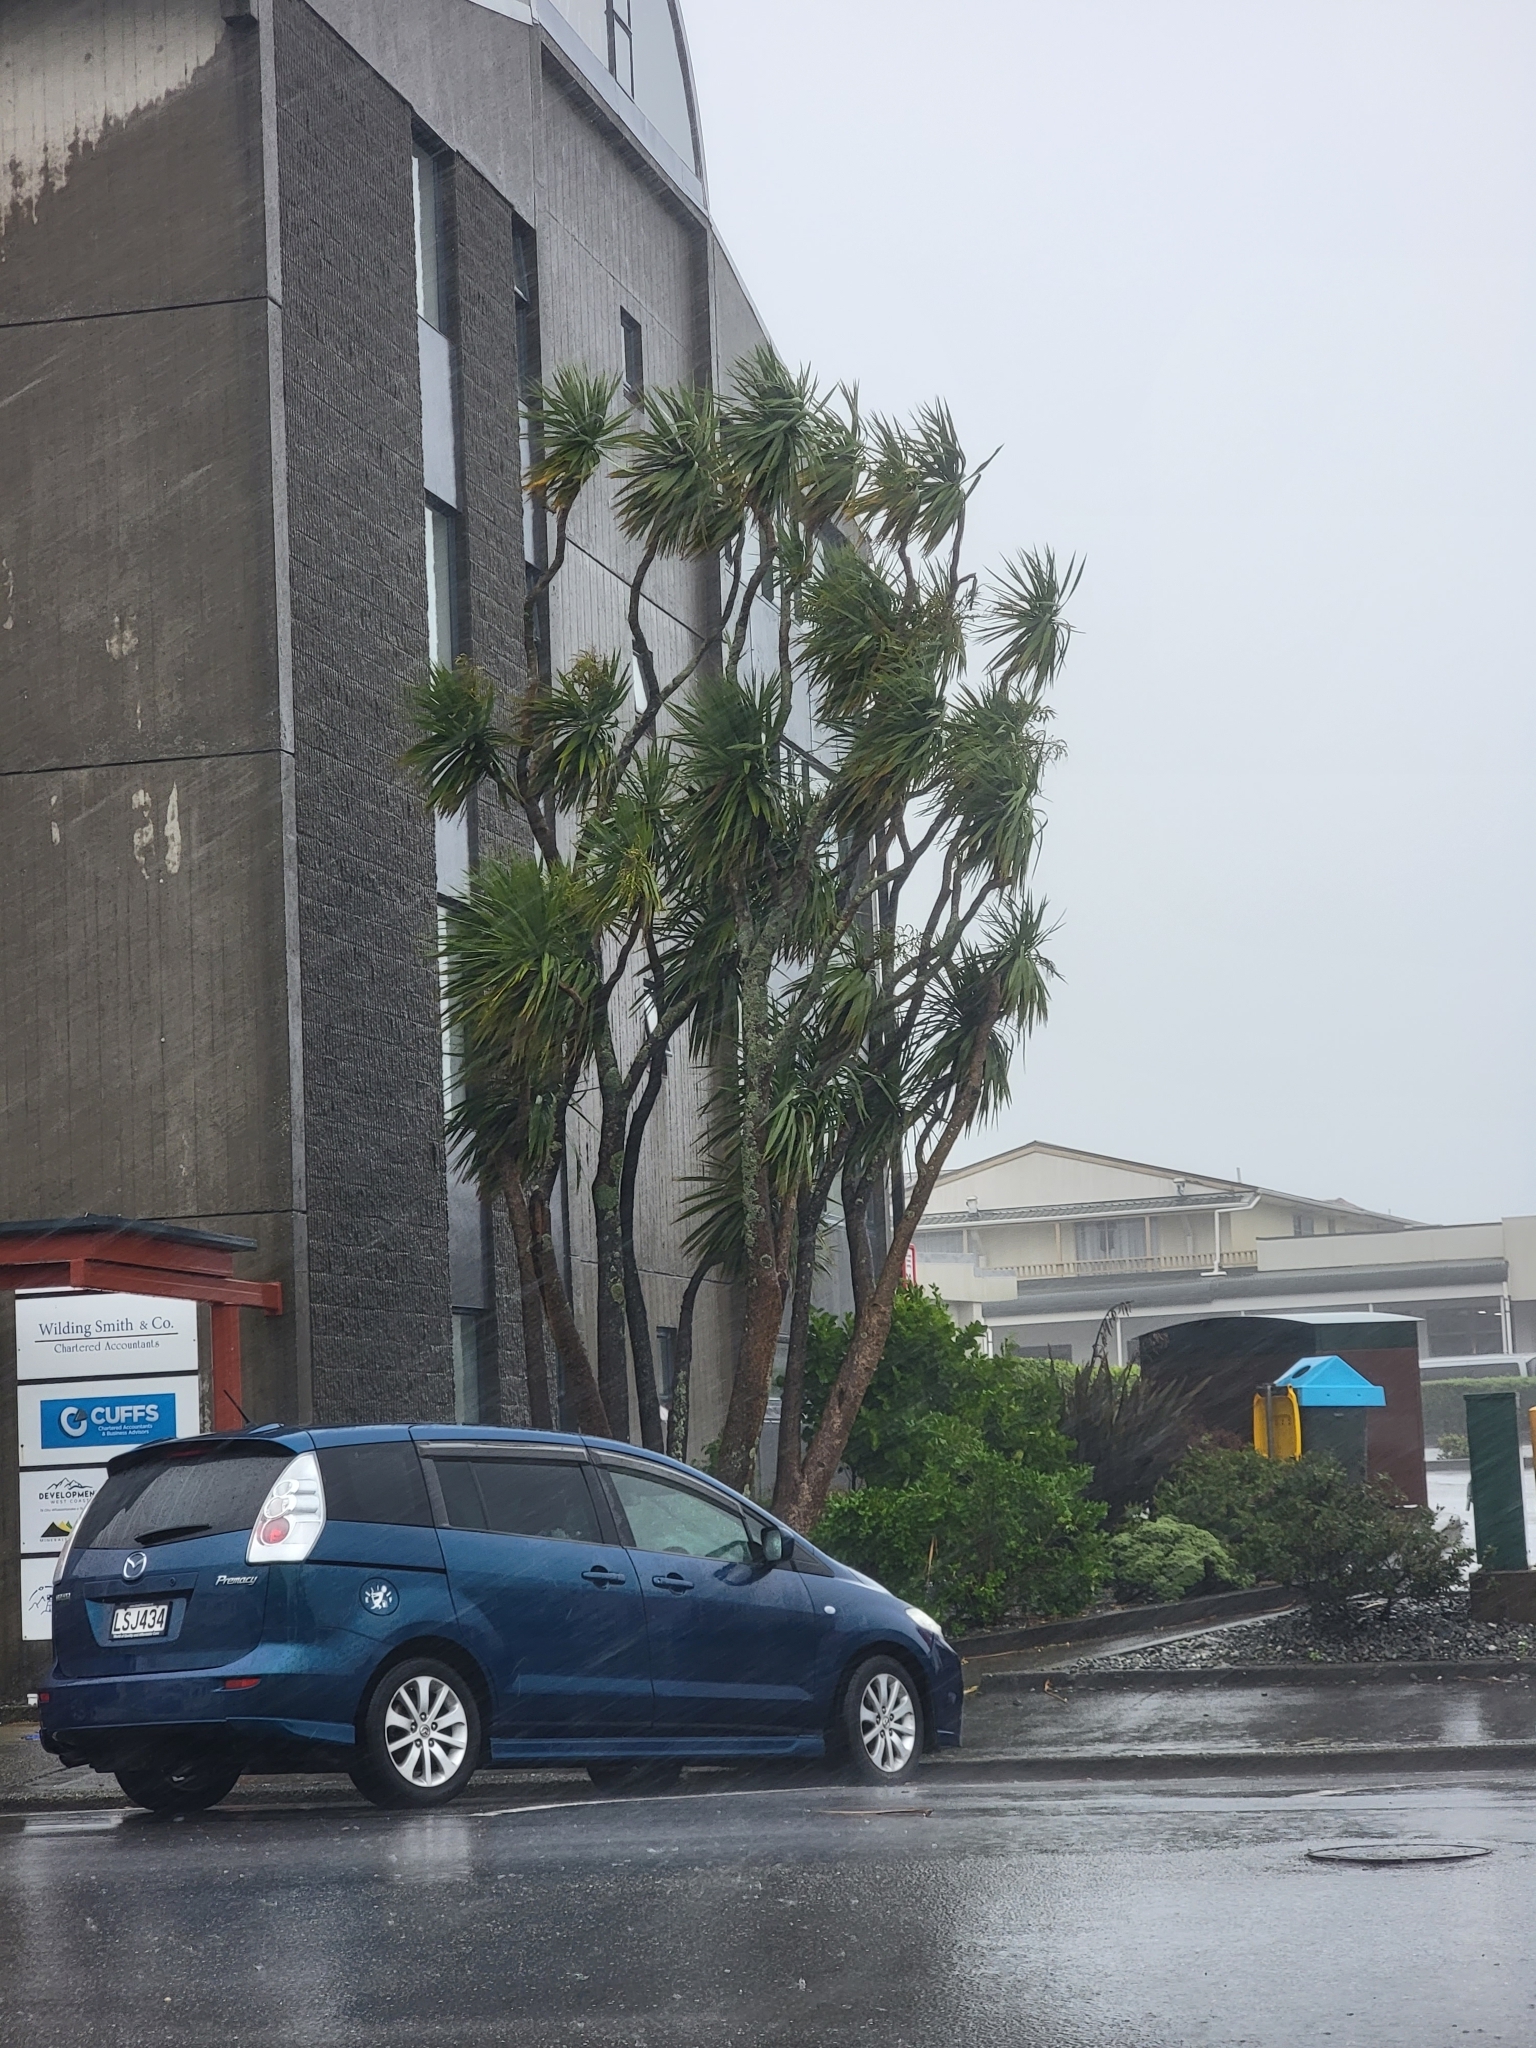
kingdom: Plantae
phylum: Tracheophyta
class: Liliopsida
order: Asparagales
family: Asparagaceae
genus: Cordyline
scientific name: Cordyline australis
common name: Cabbage-palm
